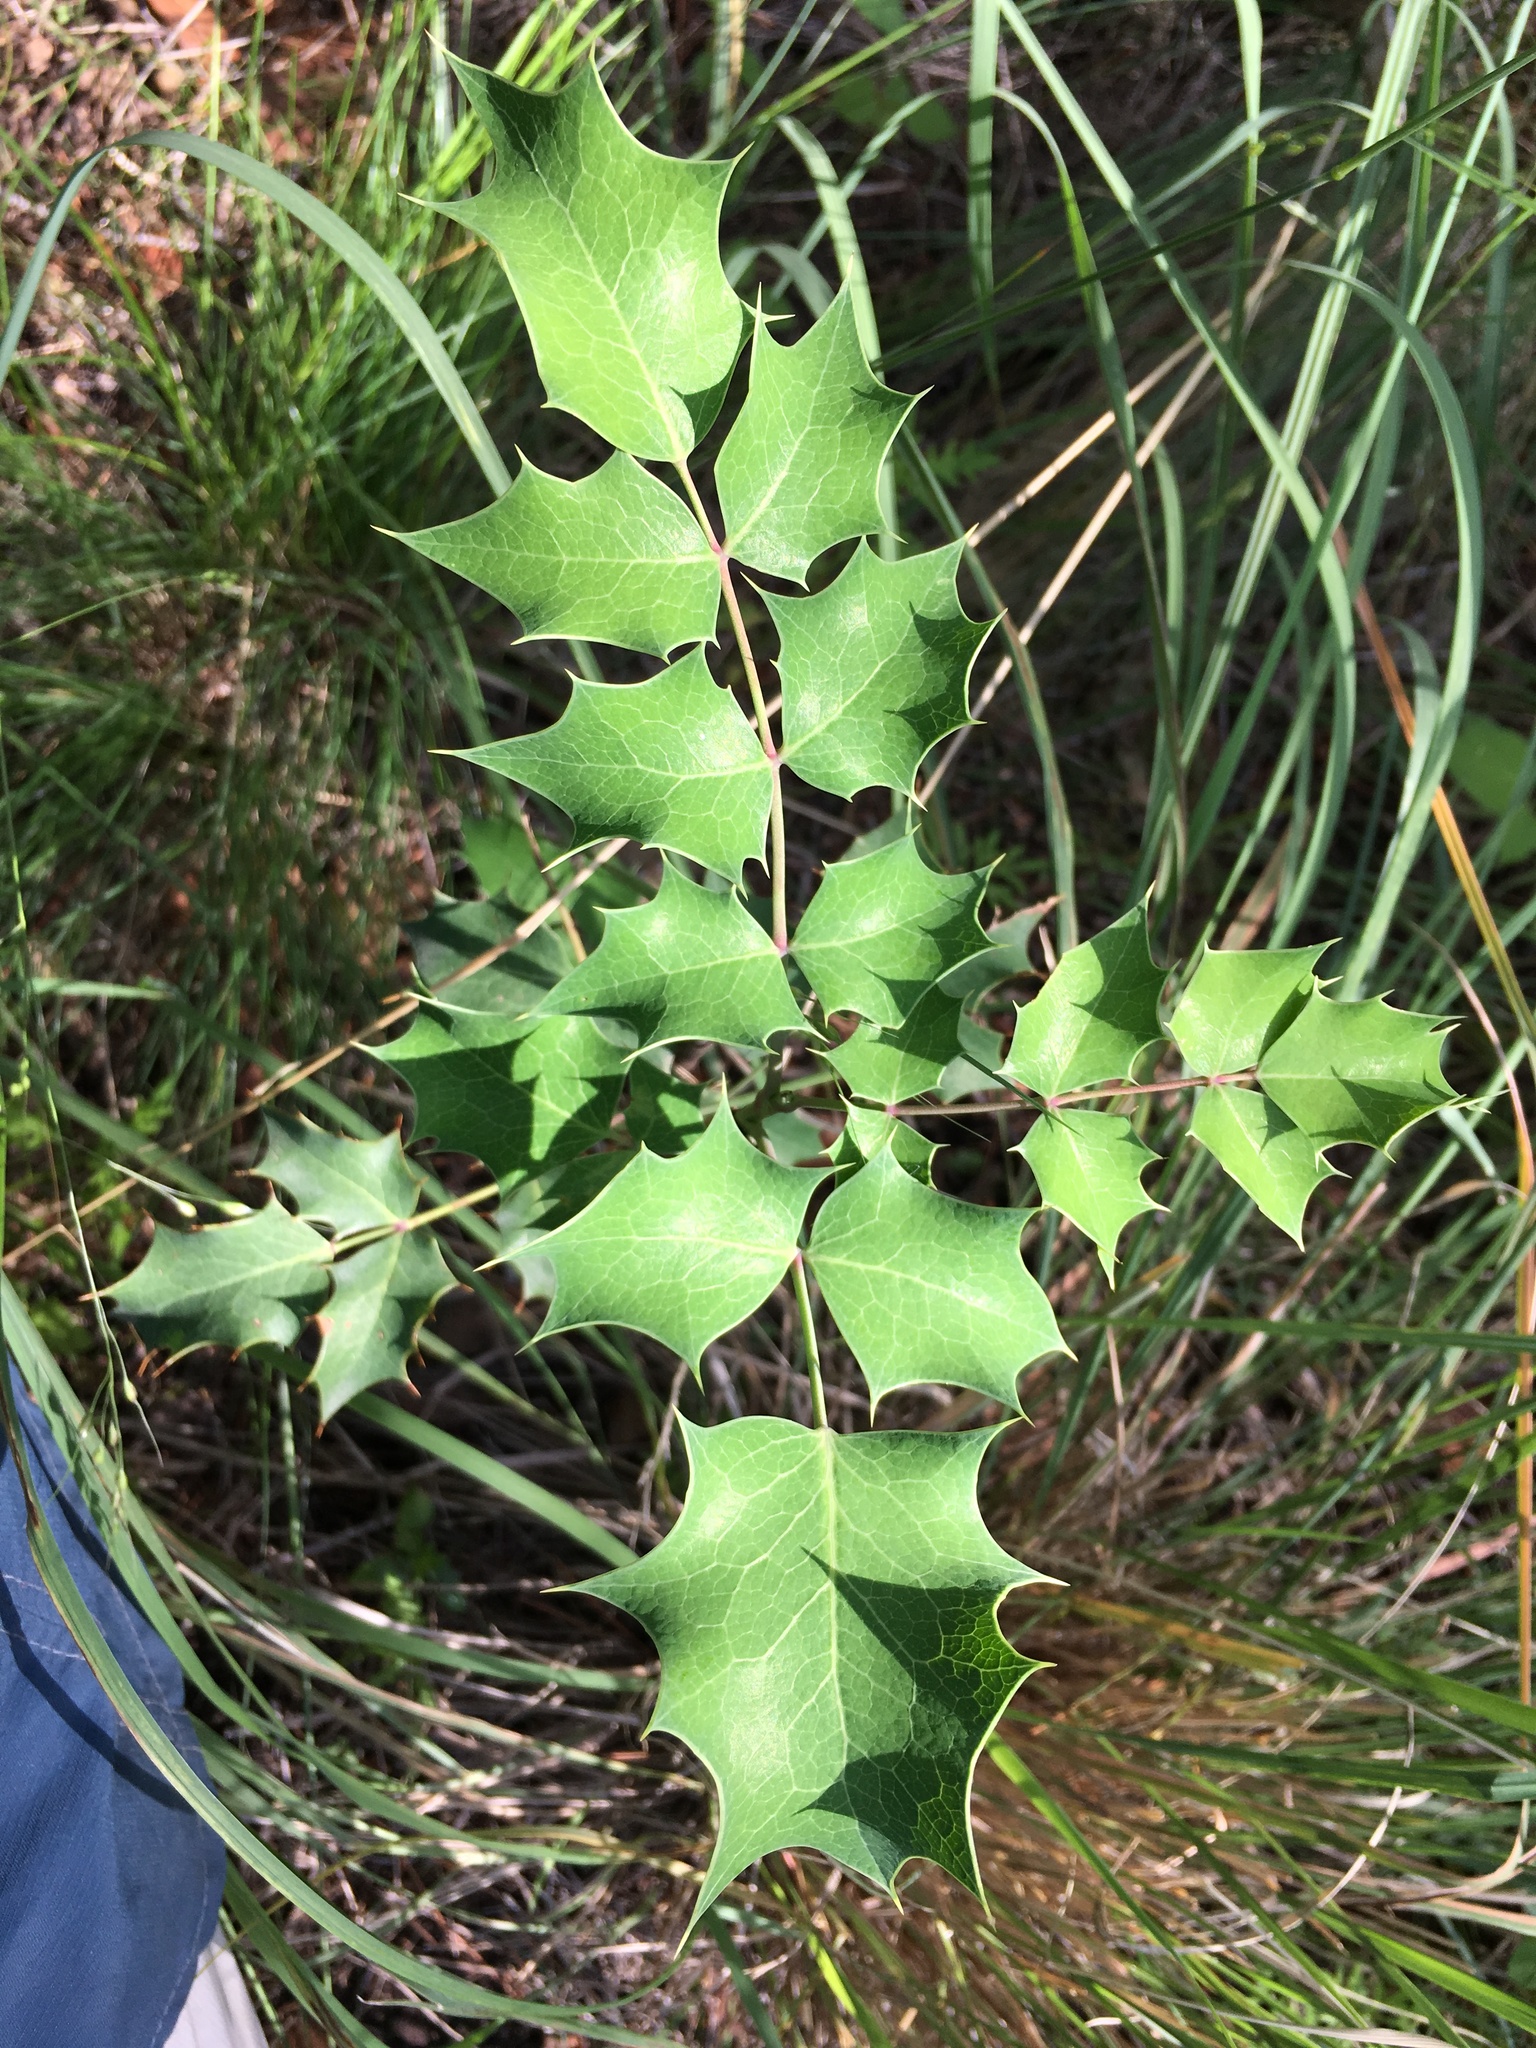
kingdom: Plantae
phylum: Tracheophyta
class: Magnoliopsida
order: Ranunculales
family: Berberidaceae
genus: Mahonia
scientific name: Mahonia wilcoxii
